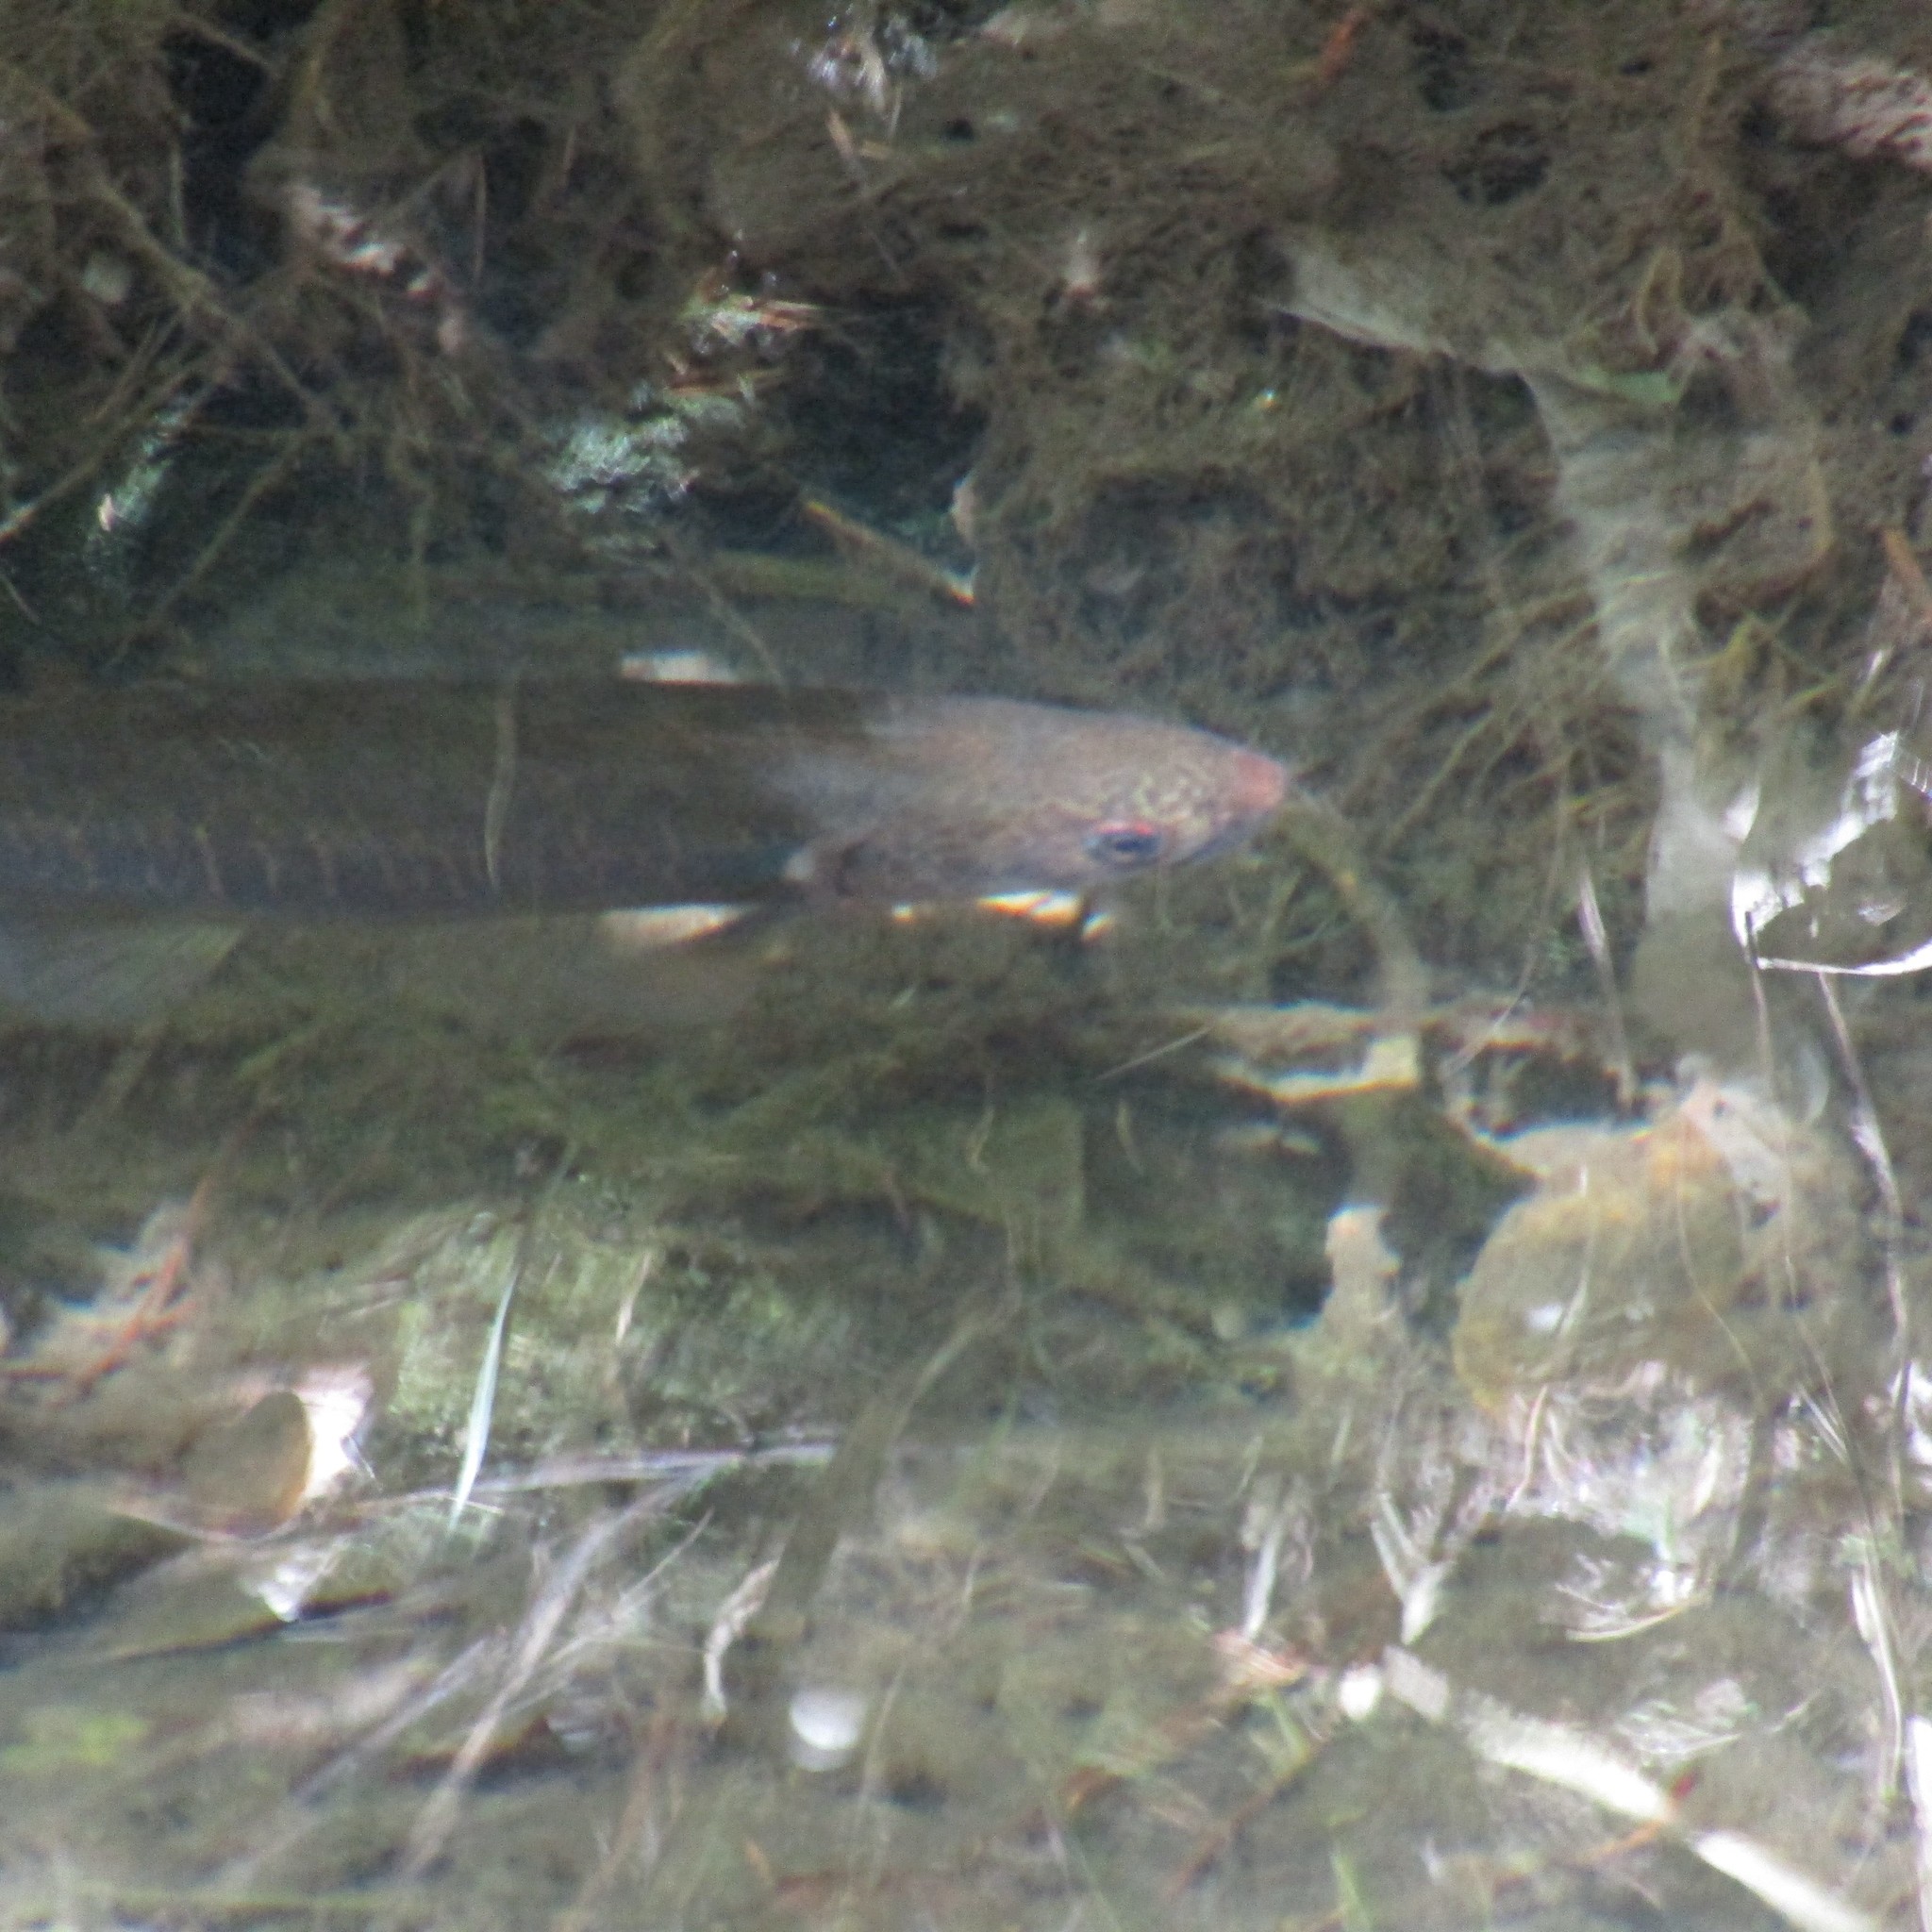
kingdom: Animalia
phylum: Chordata
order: Osmeriformes
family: Galaxiidae
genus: Galaxias
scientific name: Galaxias fasciatus
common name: Banded kokopu
